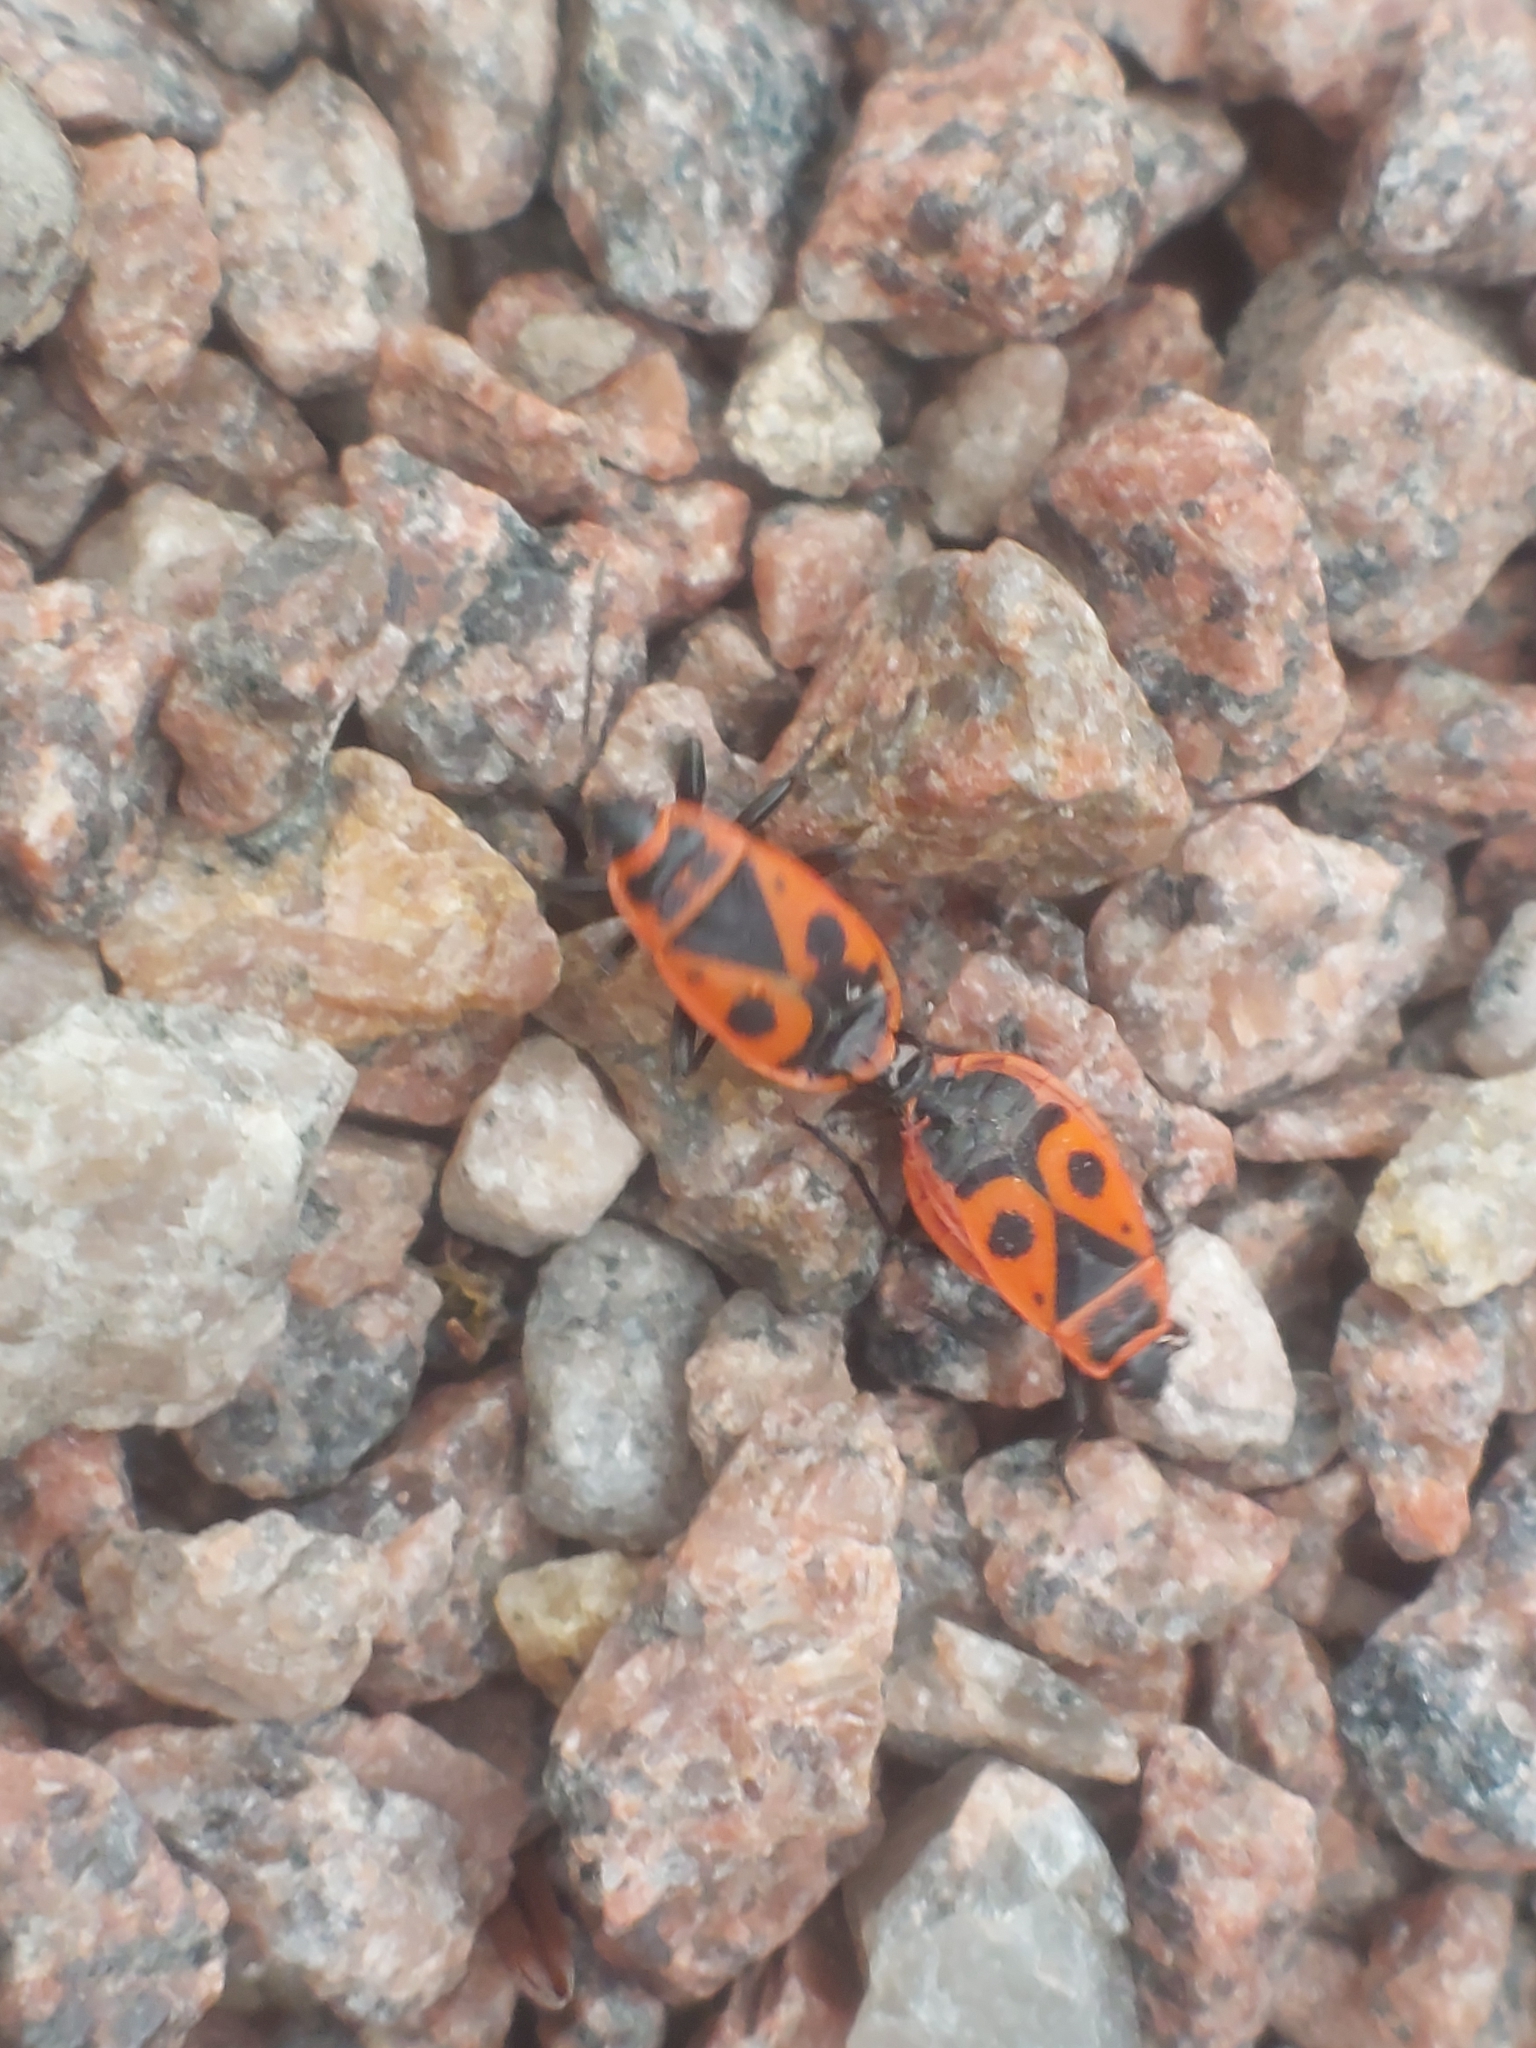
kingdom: Animalia
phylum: Arthropoda
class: Insecta
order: Hemiptera
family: Pyrrhocoridae
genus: Pyrrhocoris
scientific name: Pyrrhocoris apterus
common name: Firebug
